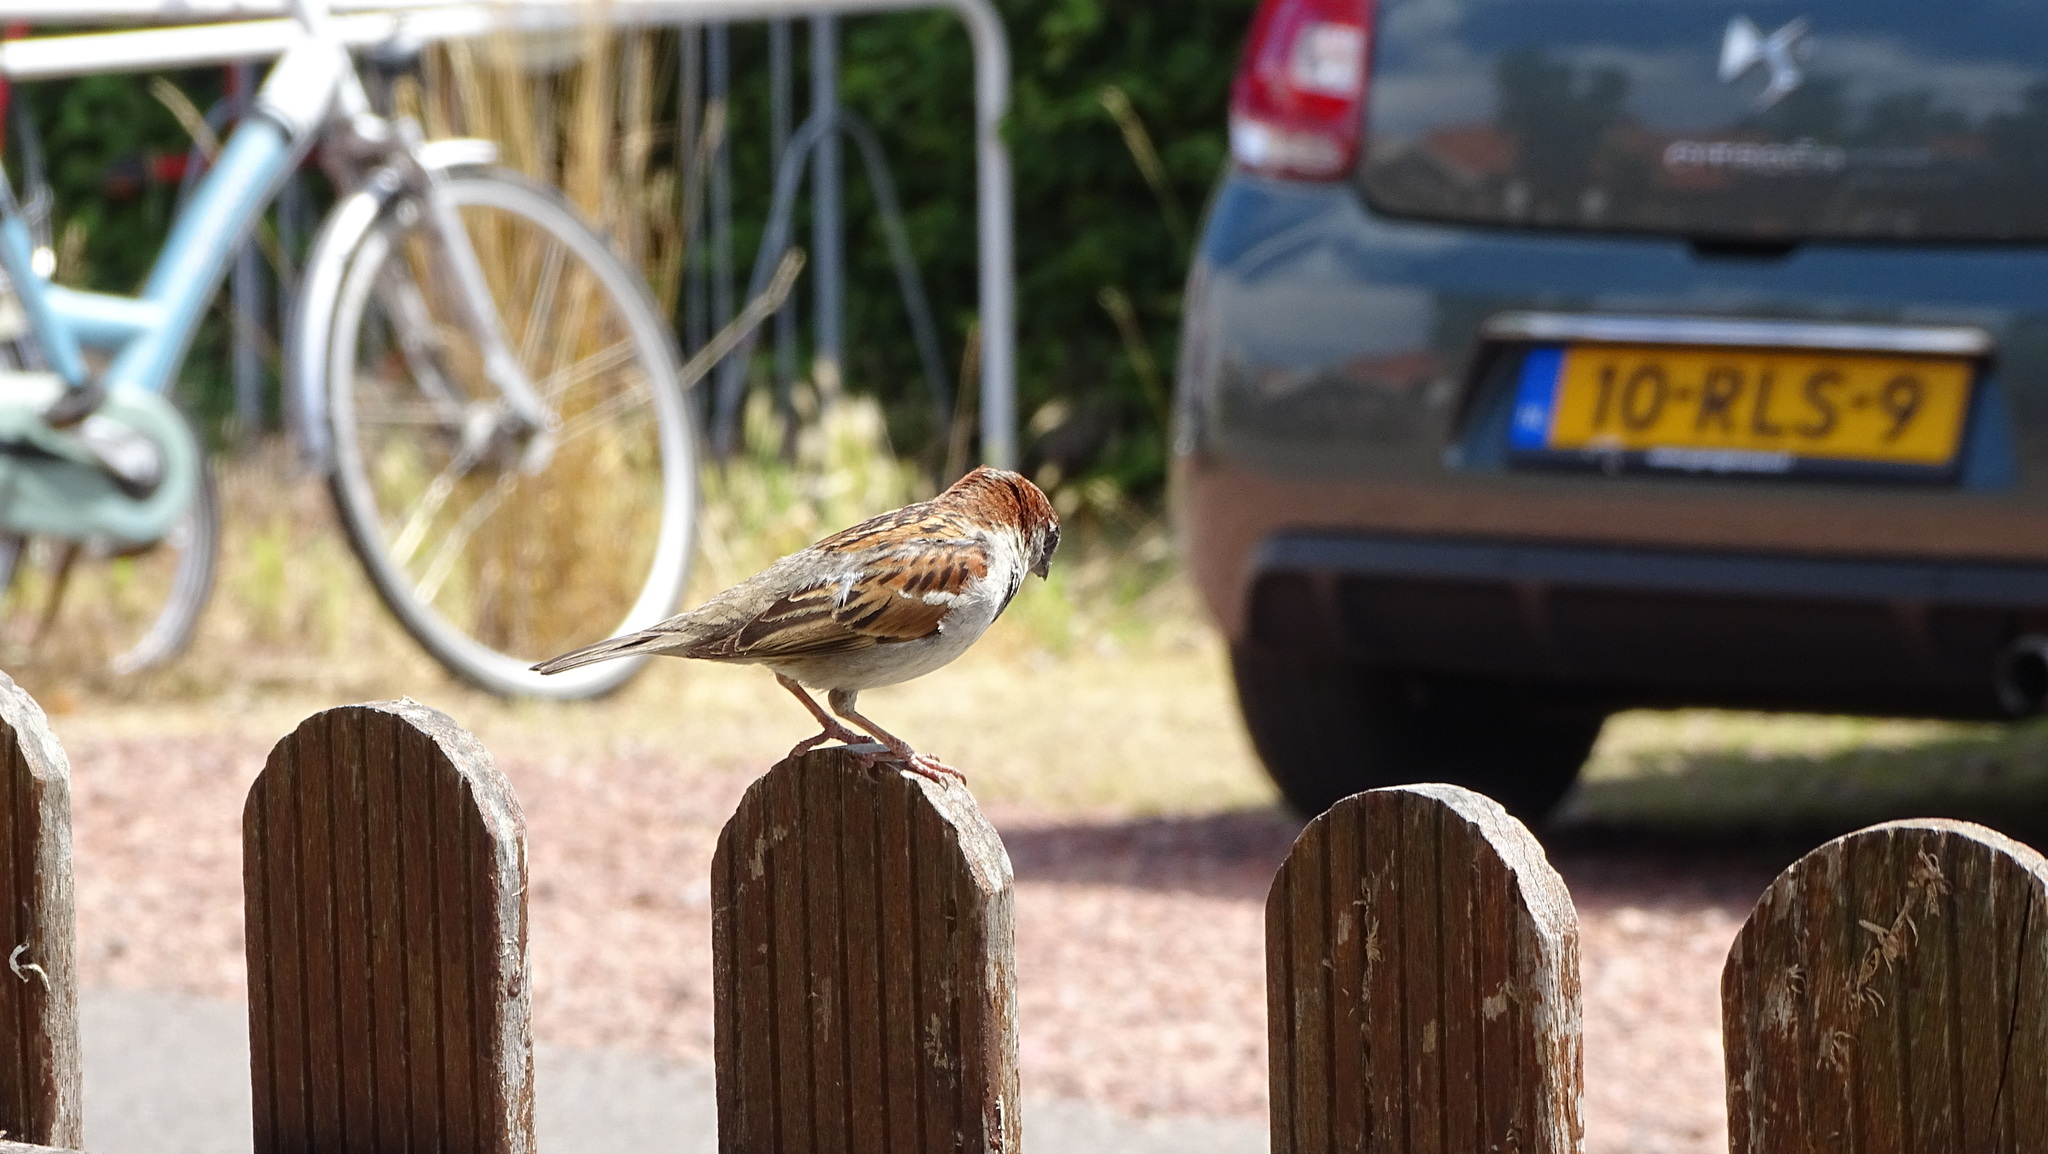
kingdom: Animalia
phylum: Chordata
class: Aves
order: Passeriformes
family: Passeridae
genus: Passer
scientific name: Passer domesticus
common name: House sparrow
